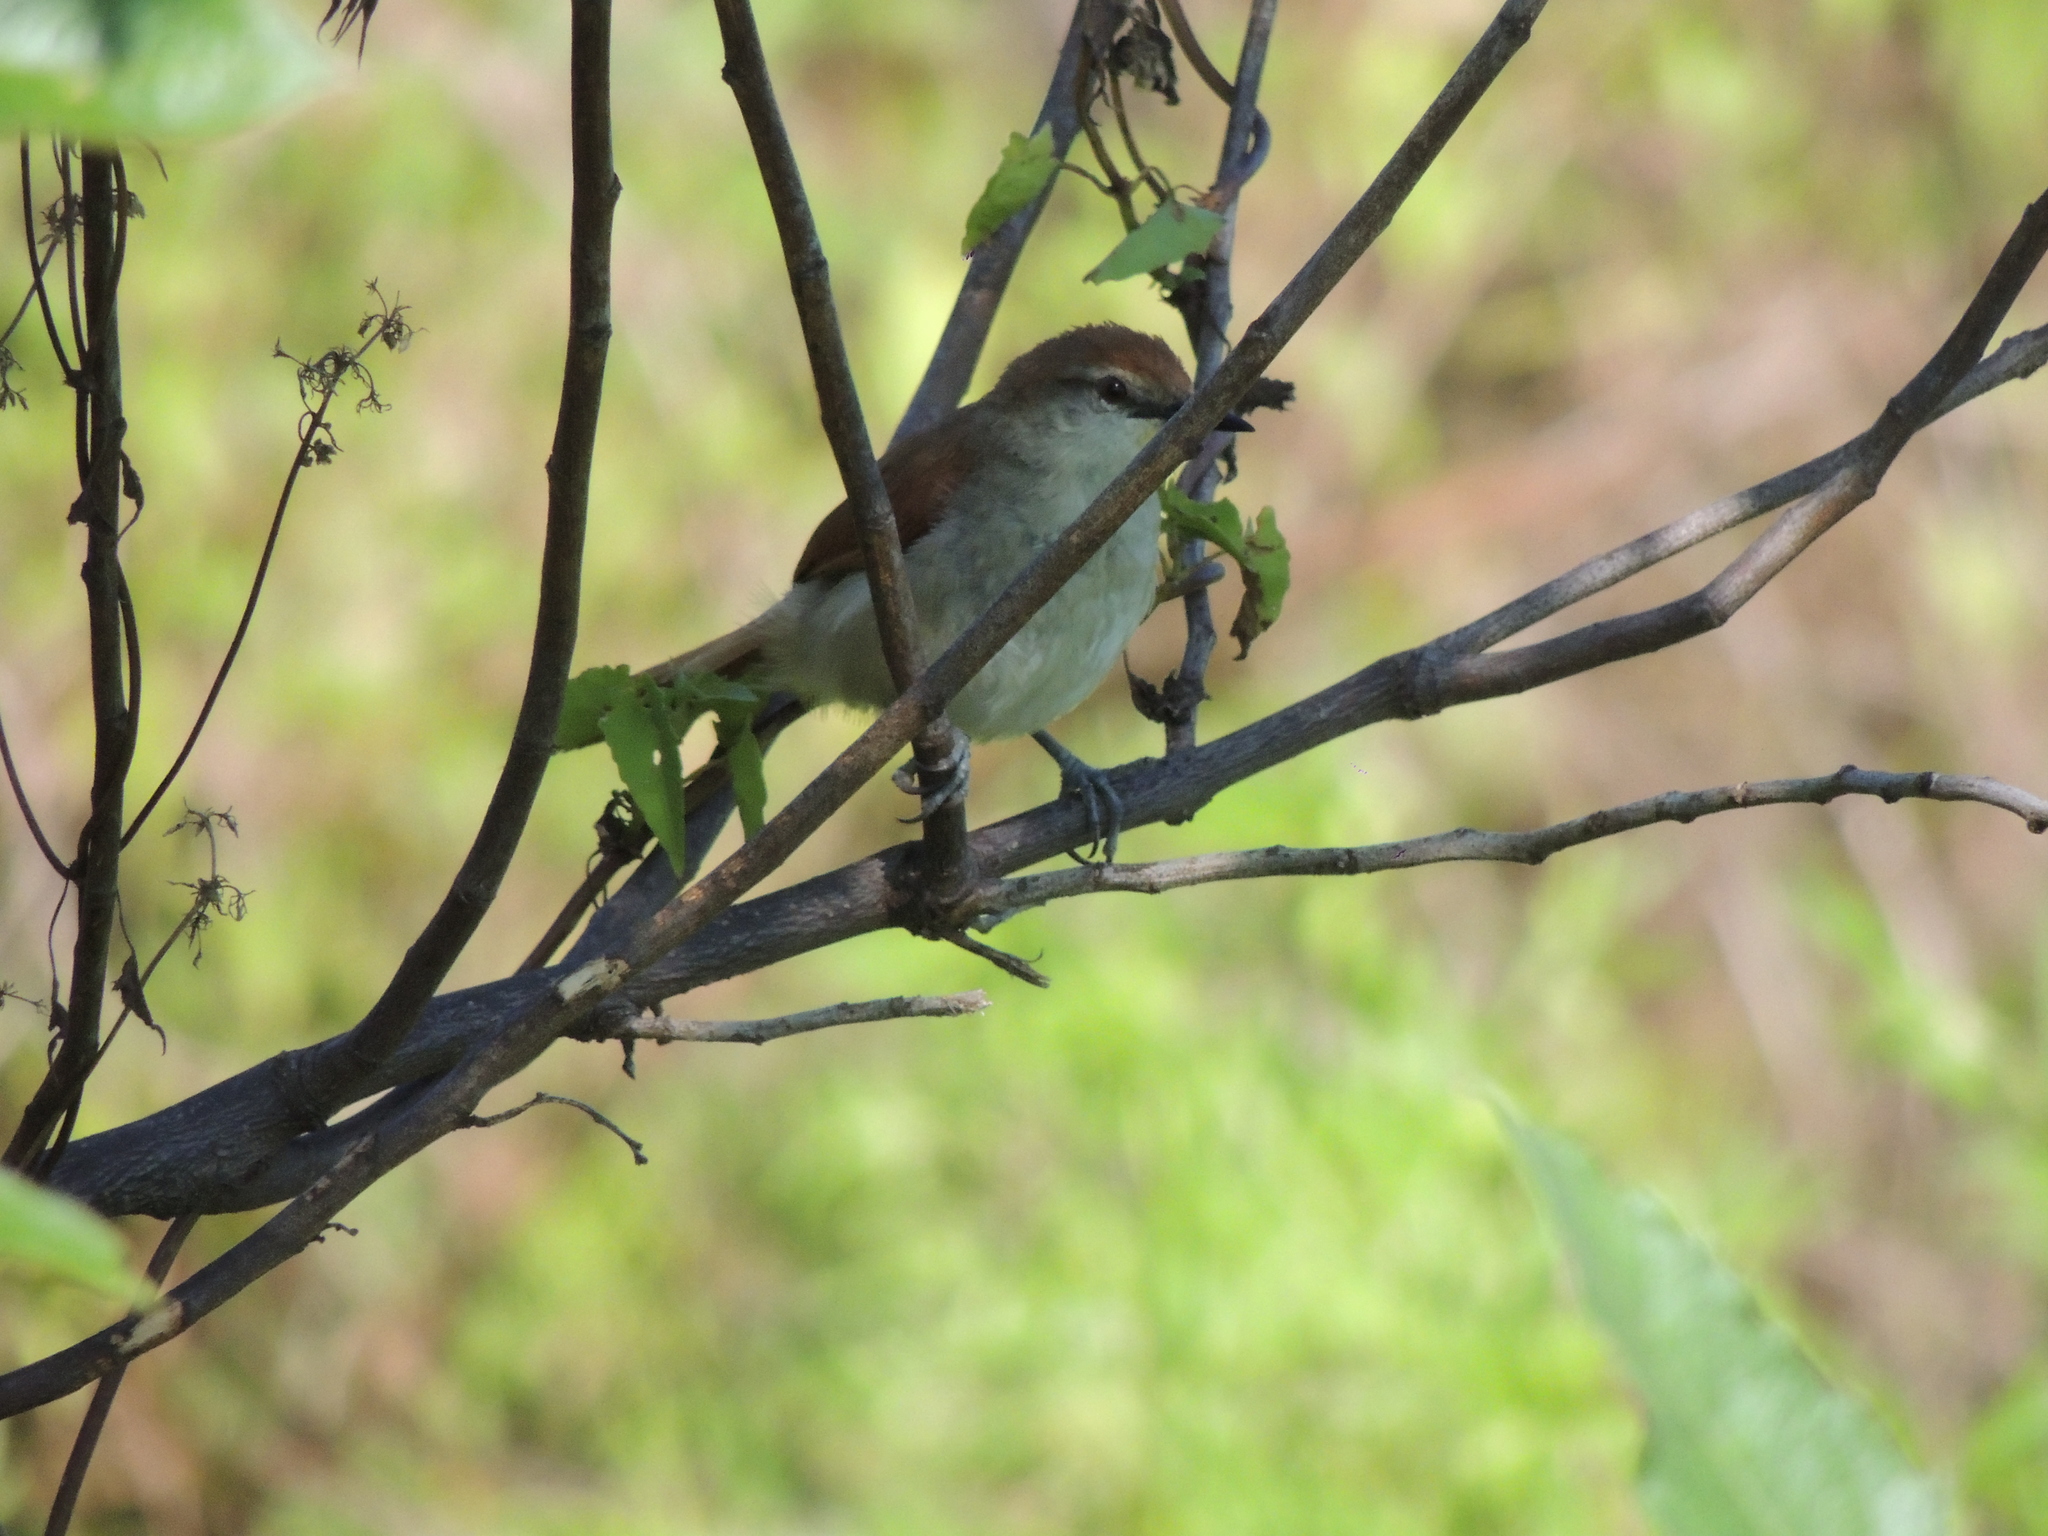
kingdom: Animalia
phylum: Chordata
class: Aves
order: Passeriformes
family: Furnariidae
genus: Certhiaxis
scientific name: Certhiaxis cinnamomeus
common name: Yellow-chinned spinetail
